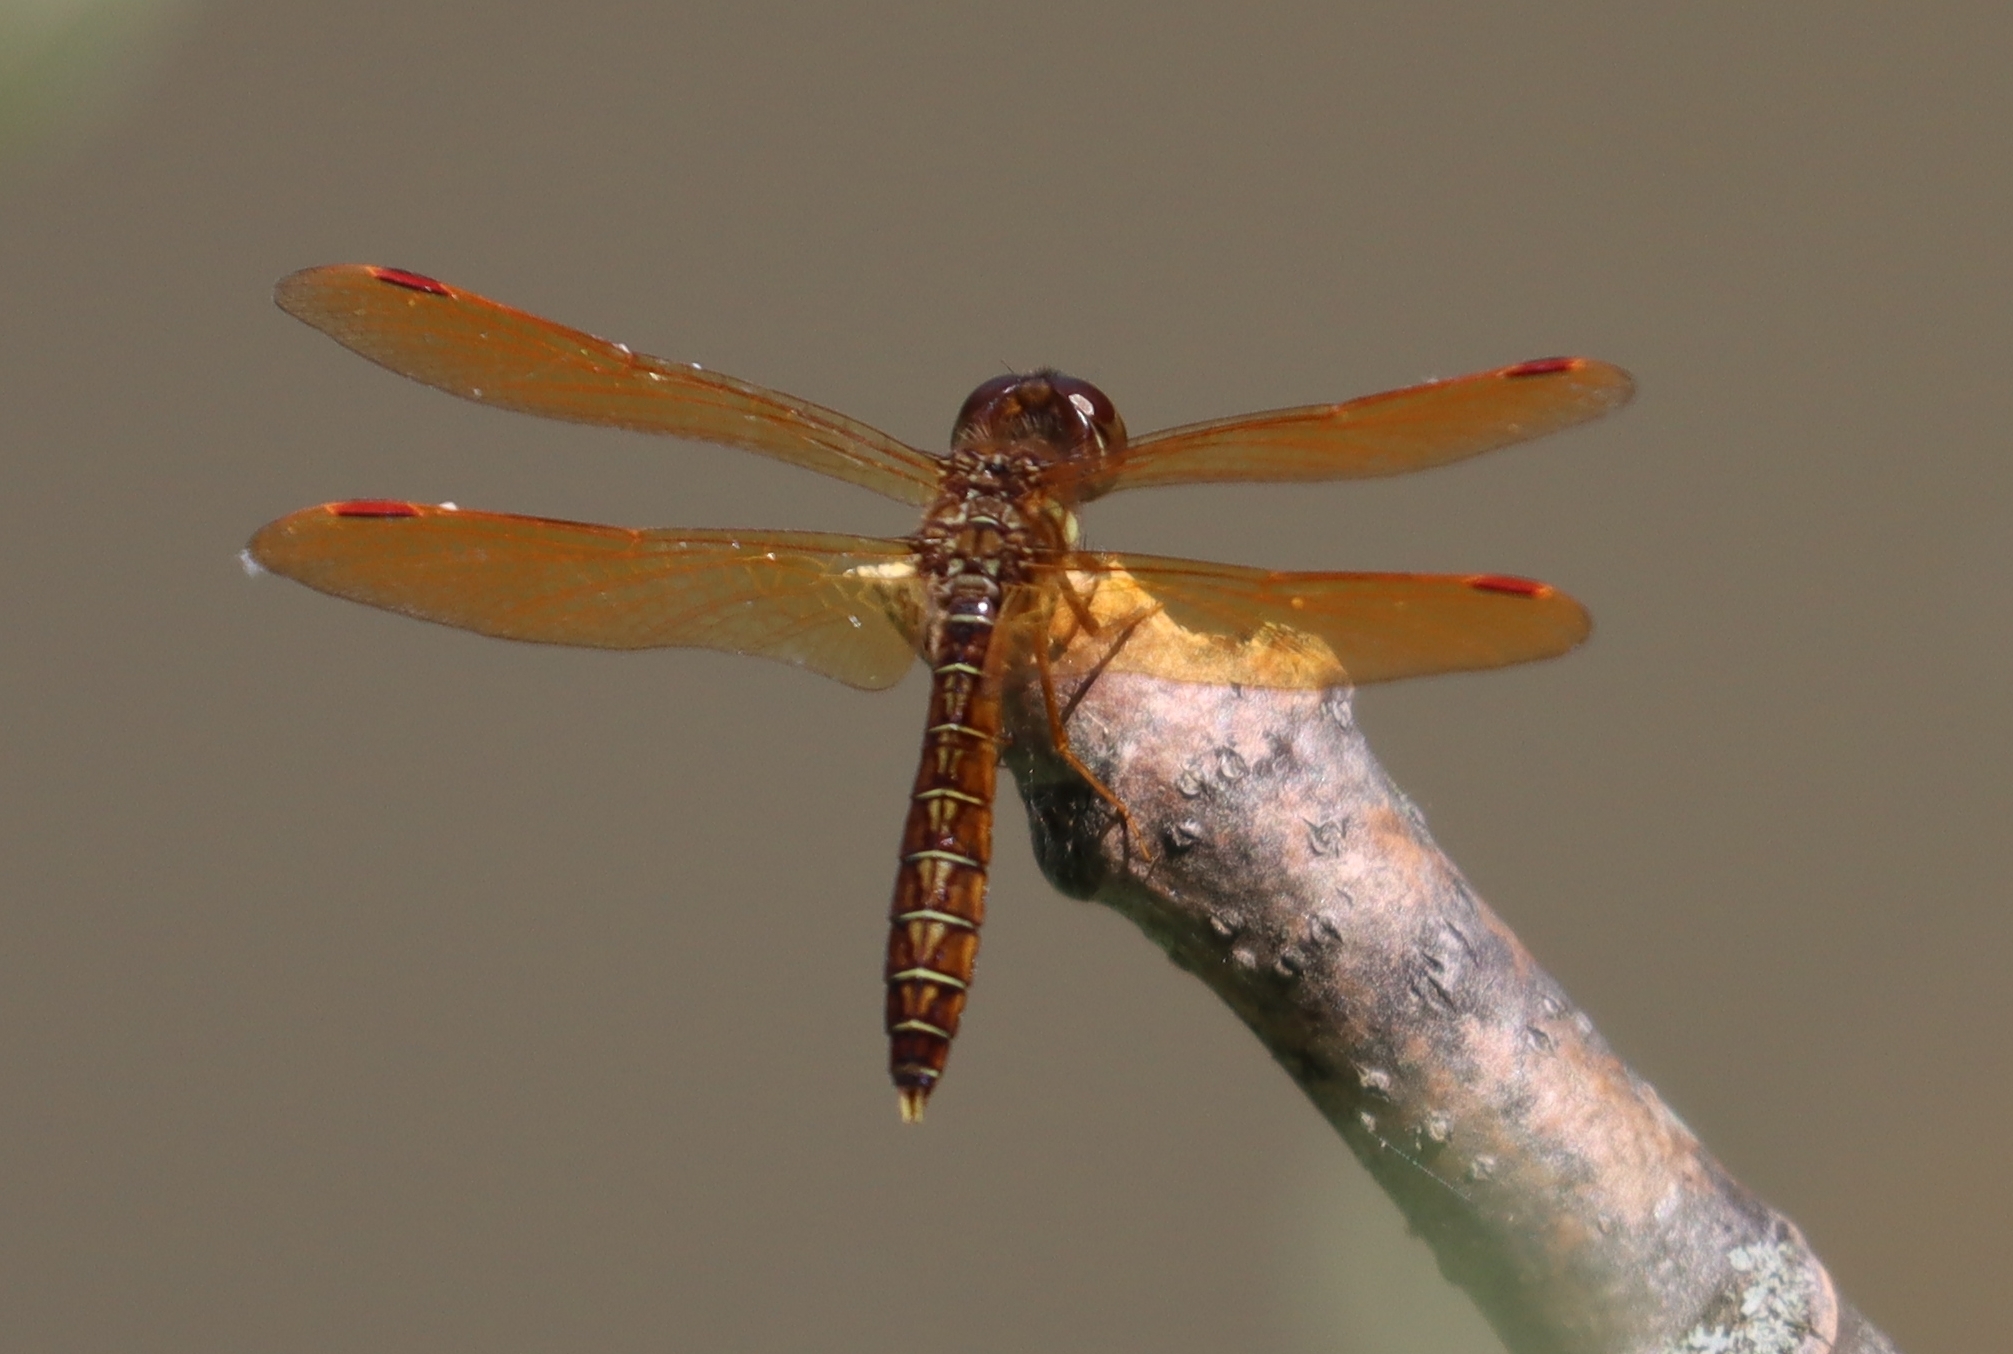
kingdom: Animalia
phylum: Arthropoda
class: Insecta
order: Odonata
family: Libellulidae
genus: Perithemis
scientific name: Perithemis tenera
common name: Eastern amberwing
